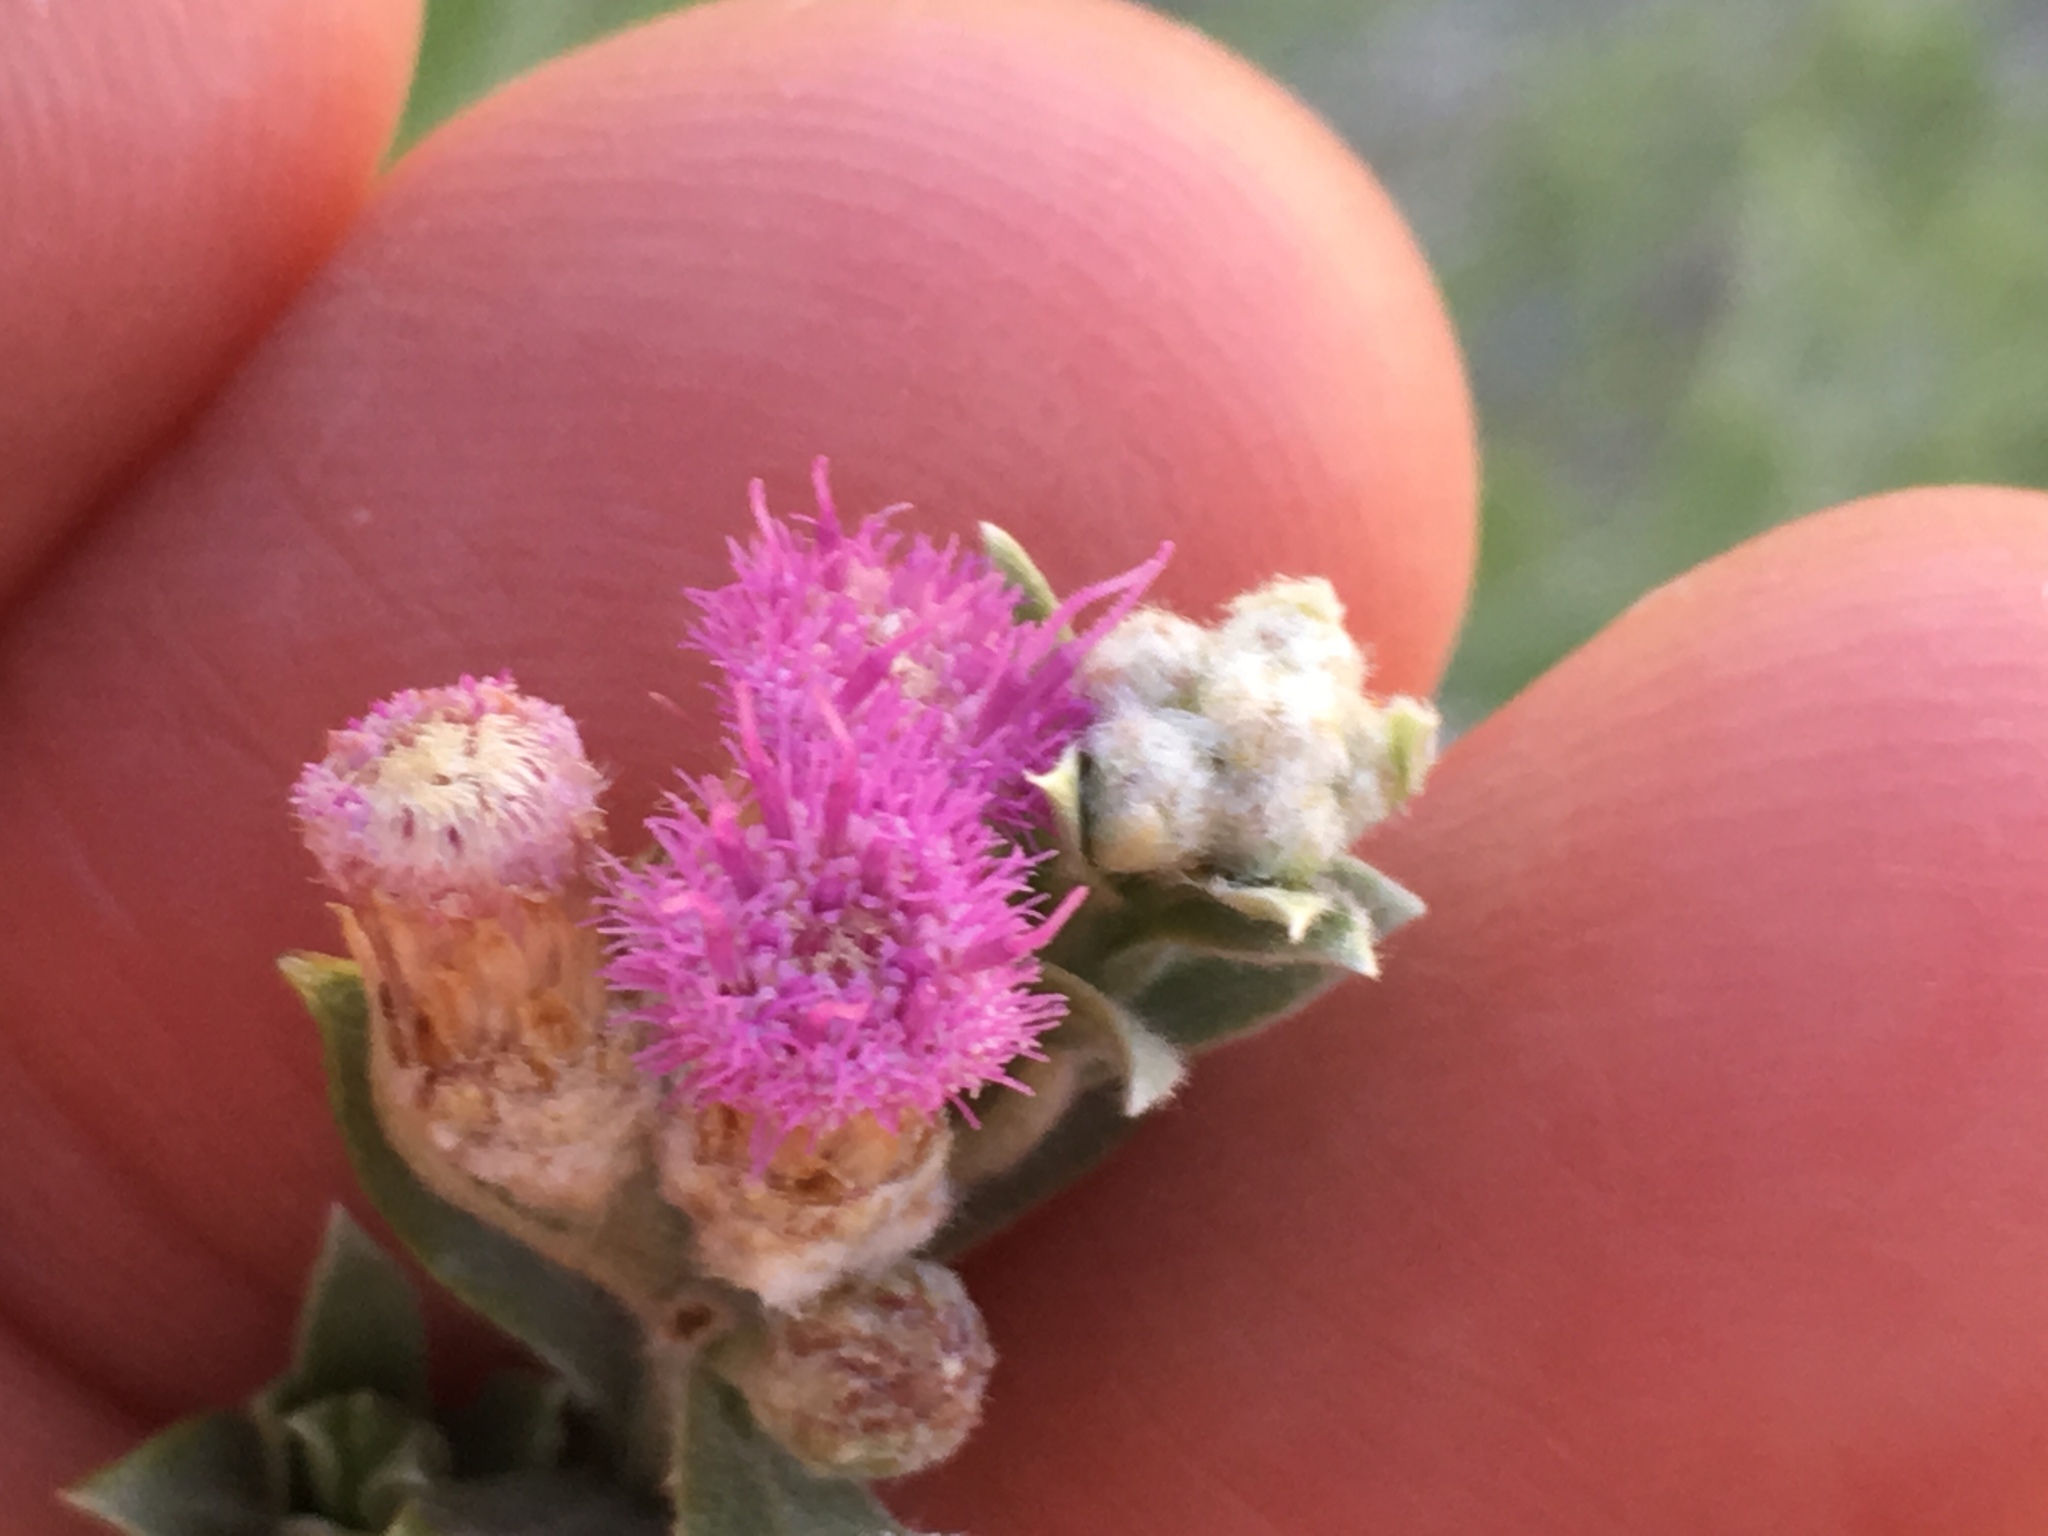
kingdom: Plantae
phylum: Tracheophyta
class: Magnoliopsida
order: Asterales
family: Asteraceae
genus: Pluchea
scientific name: Pluchea sericea
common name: Arrow-weed
